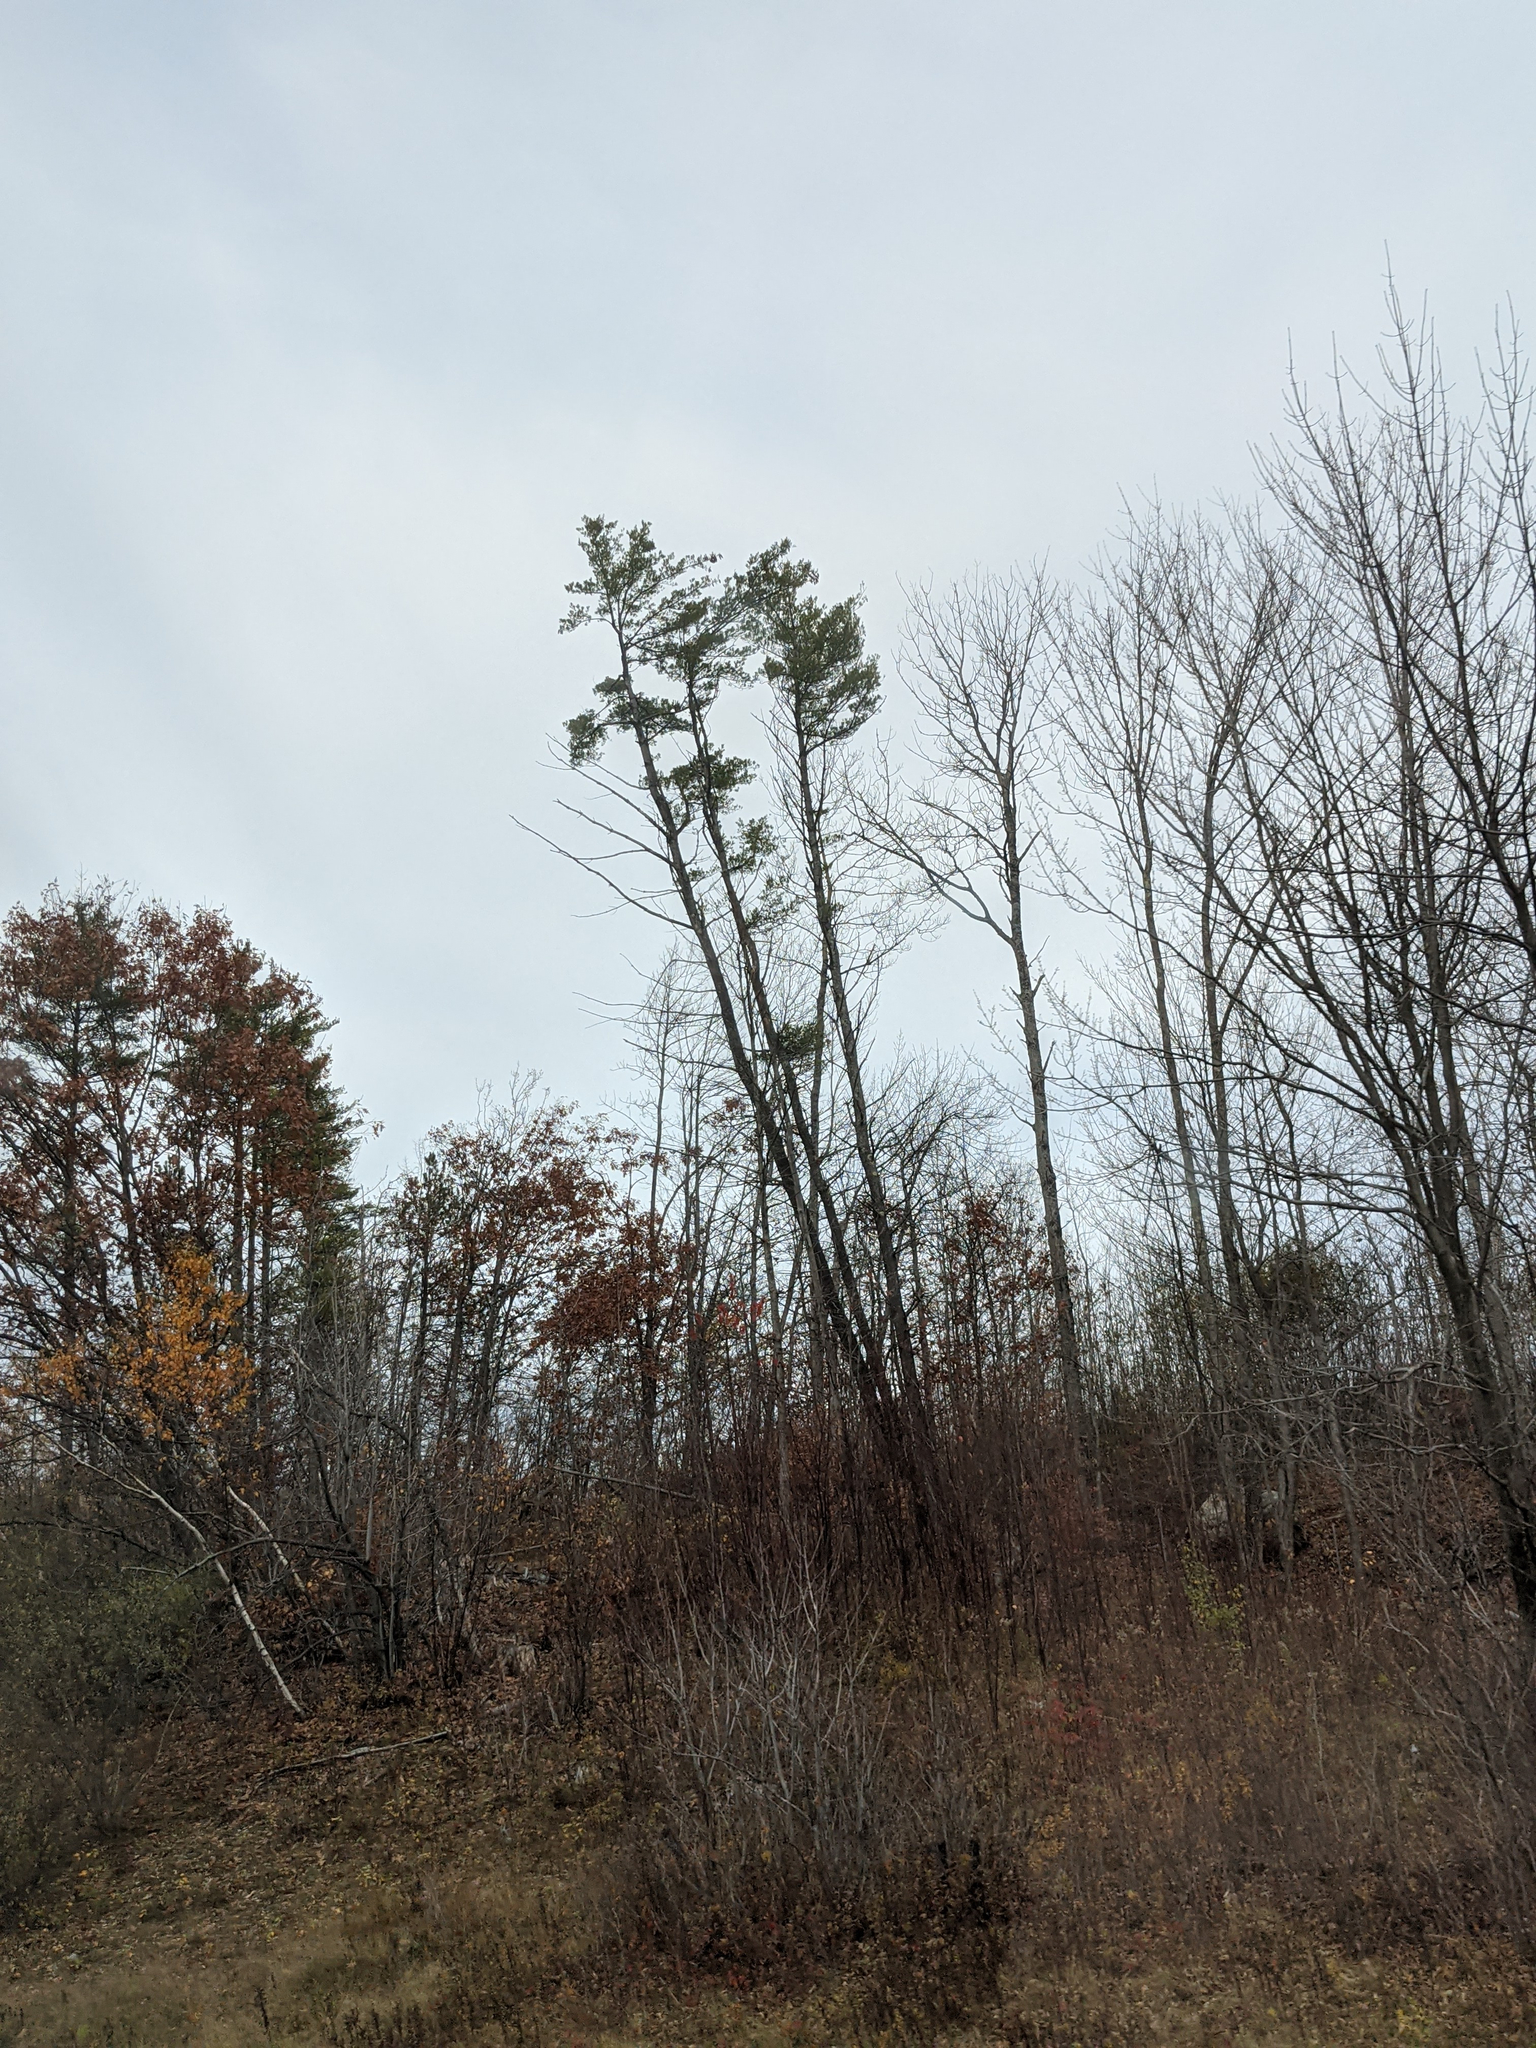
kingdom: Plantae
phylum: Tracheophyta
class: Pinopsida
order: Pinales
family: Pinaceae
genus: Pinus
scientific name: Pinus strobus
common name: Weymouth pine
